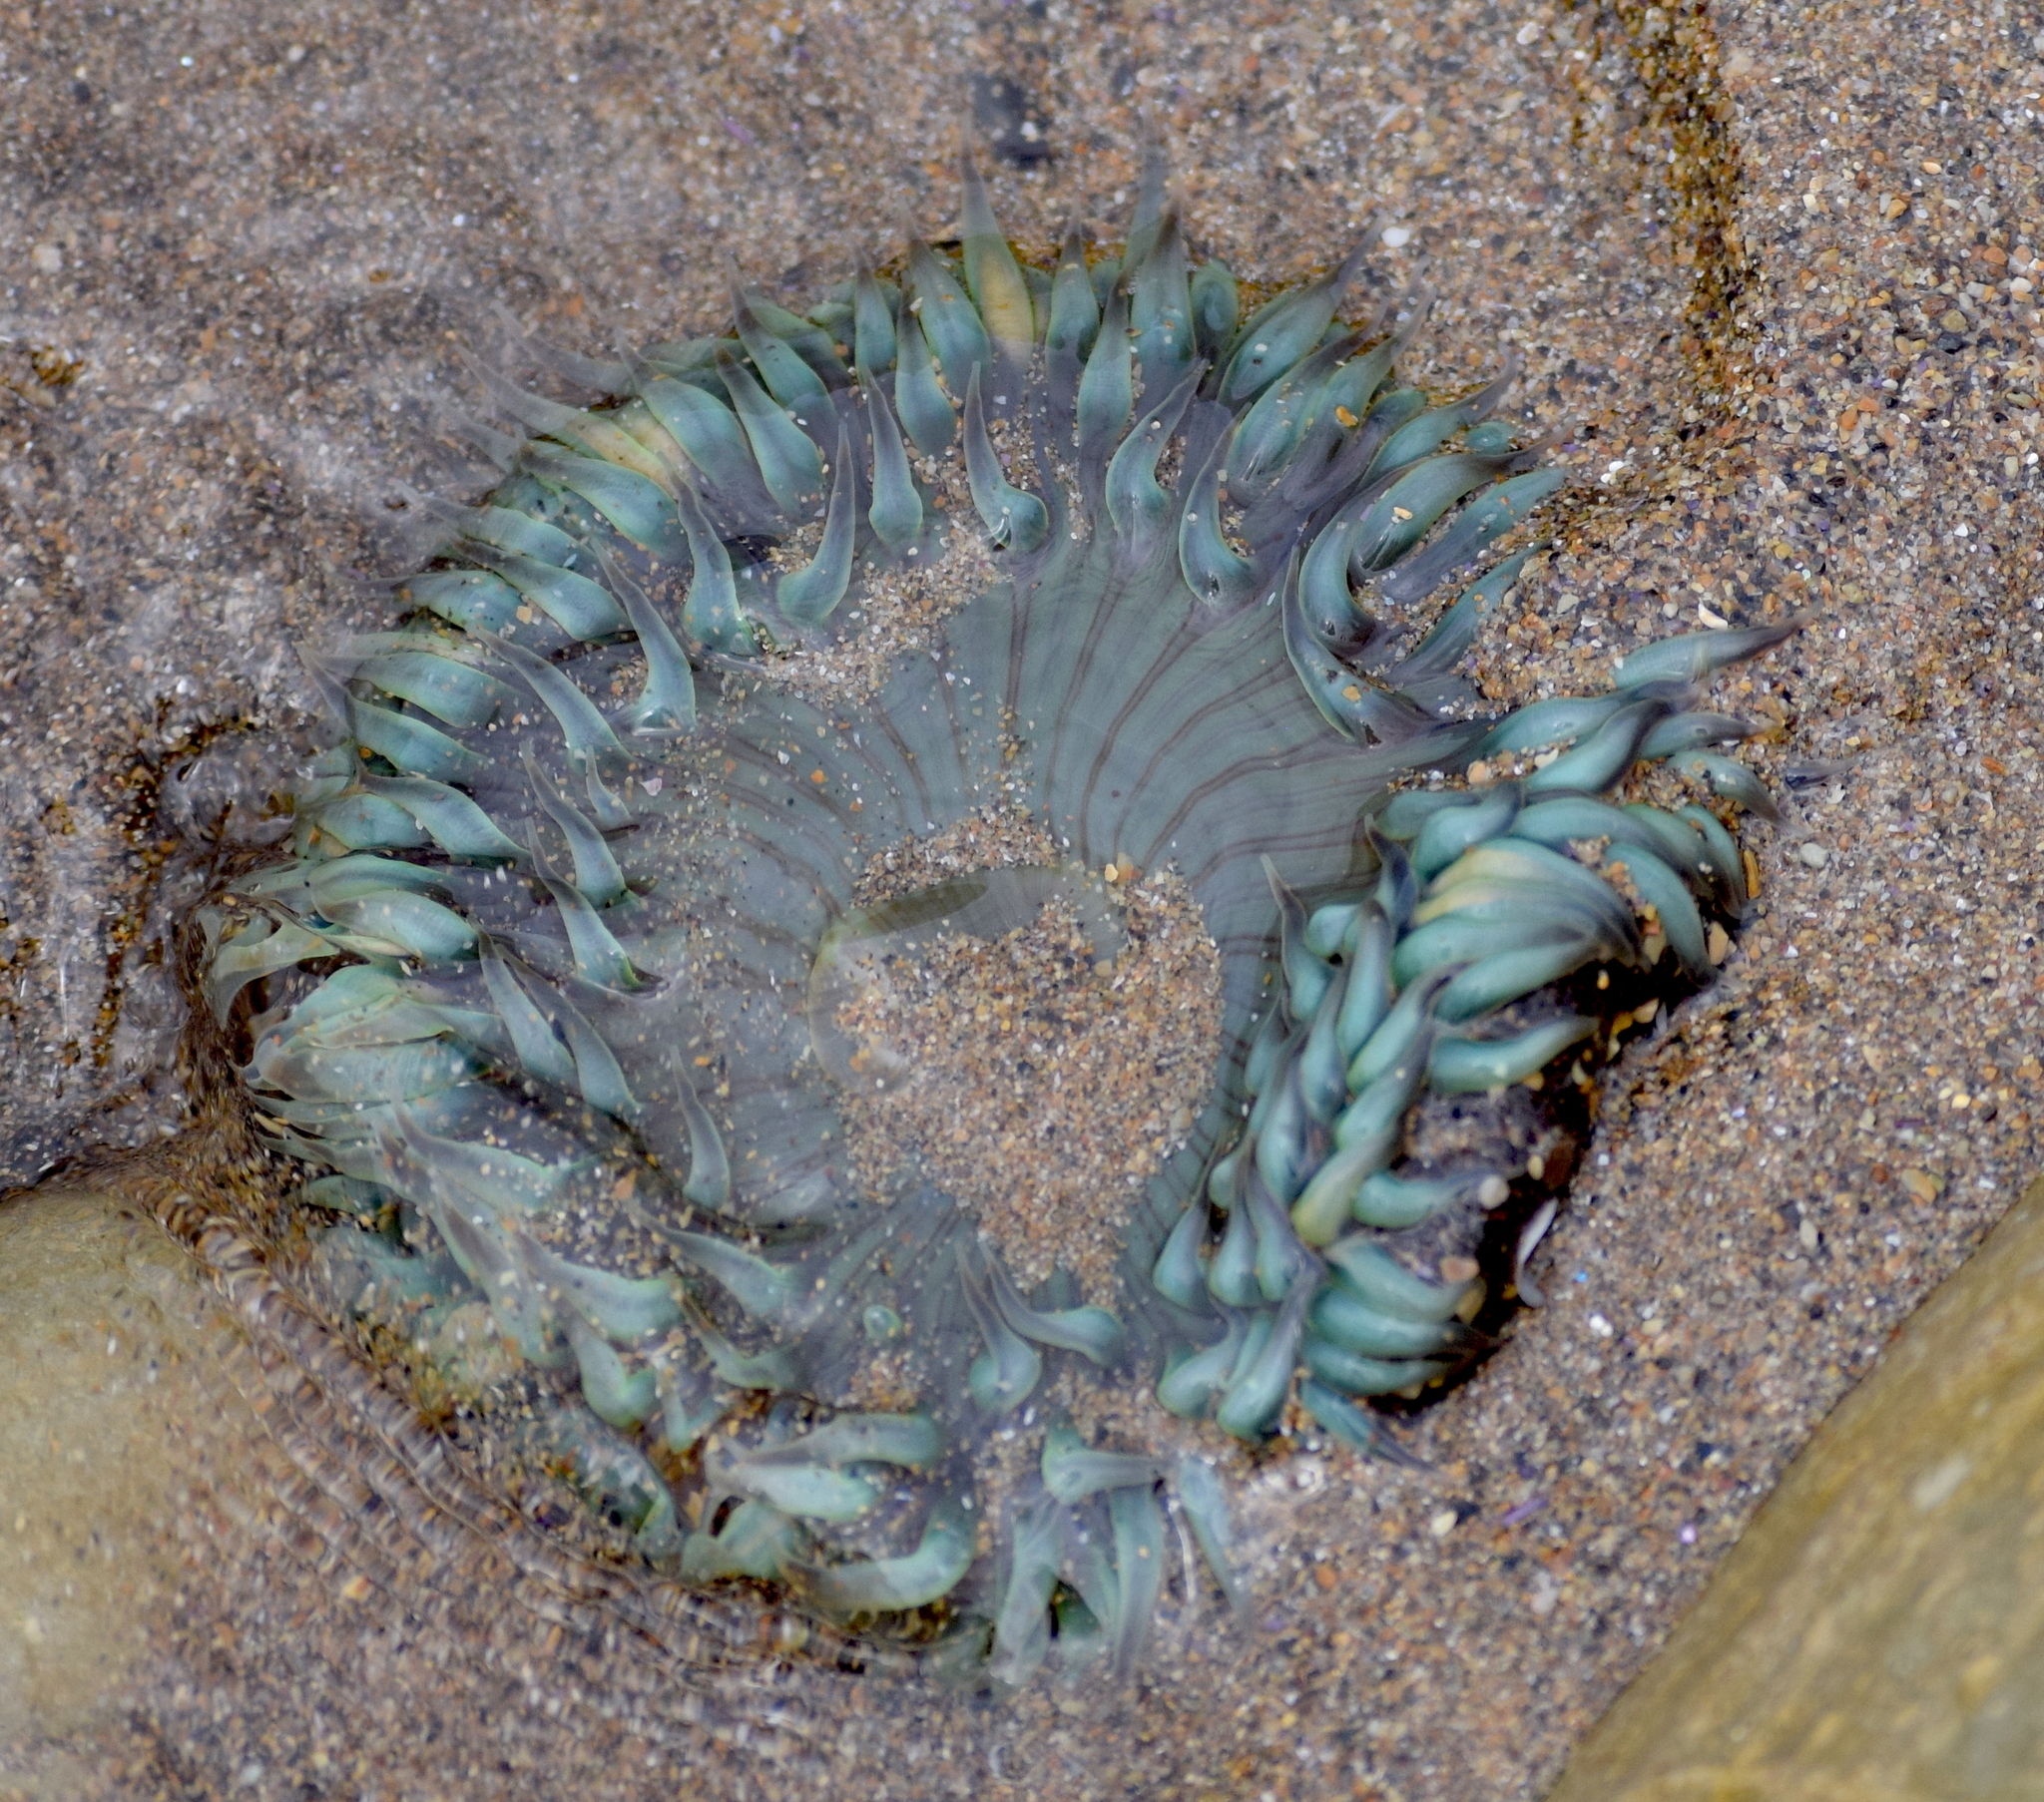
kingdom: Animalia
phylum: Cnidaria
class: Anthozoa
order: Actiniaria
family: Actiniidae
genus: Anthopleura
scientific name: Anthopleura sola
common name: Sun anemone
